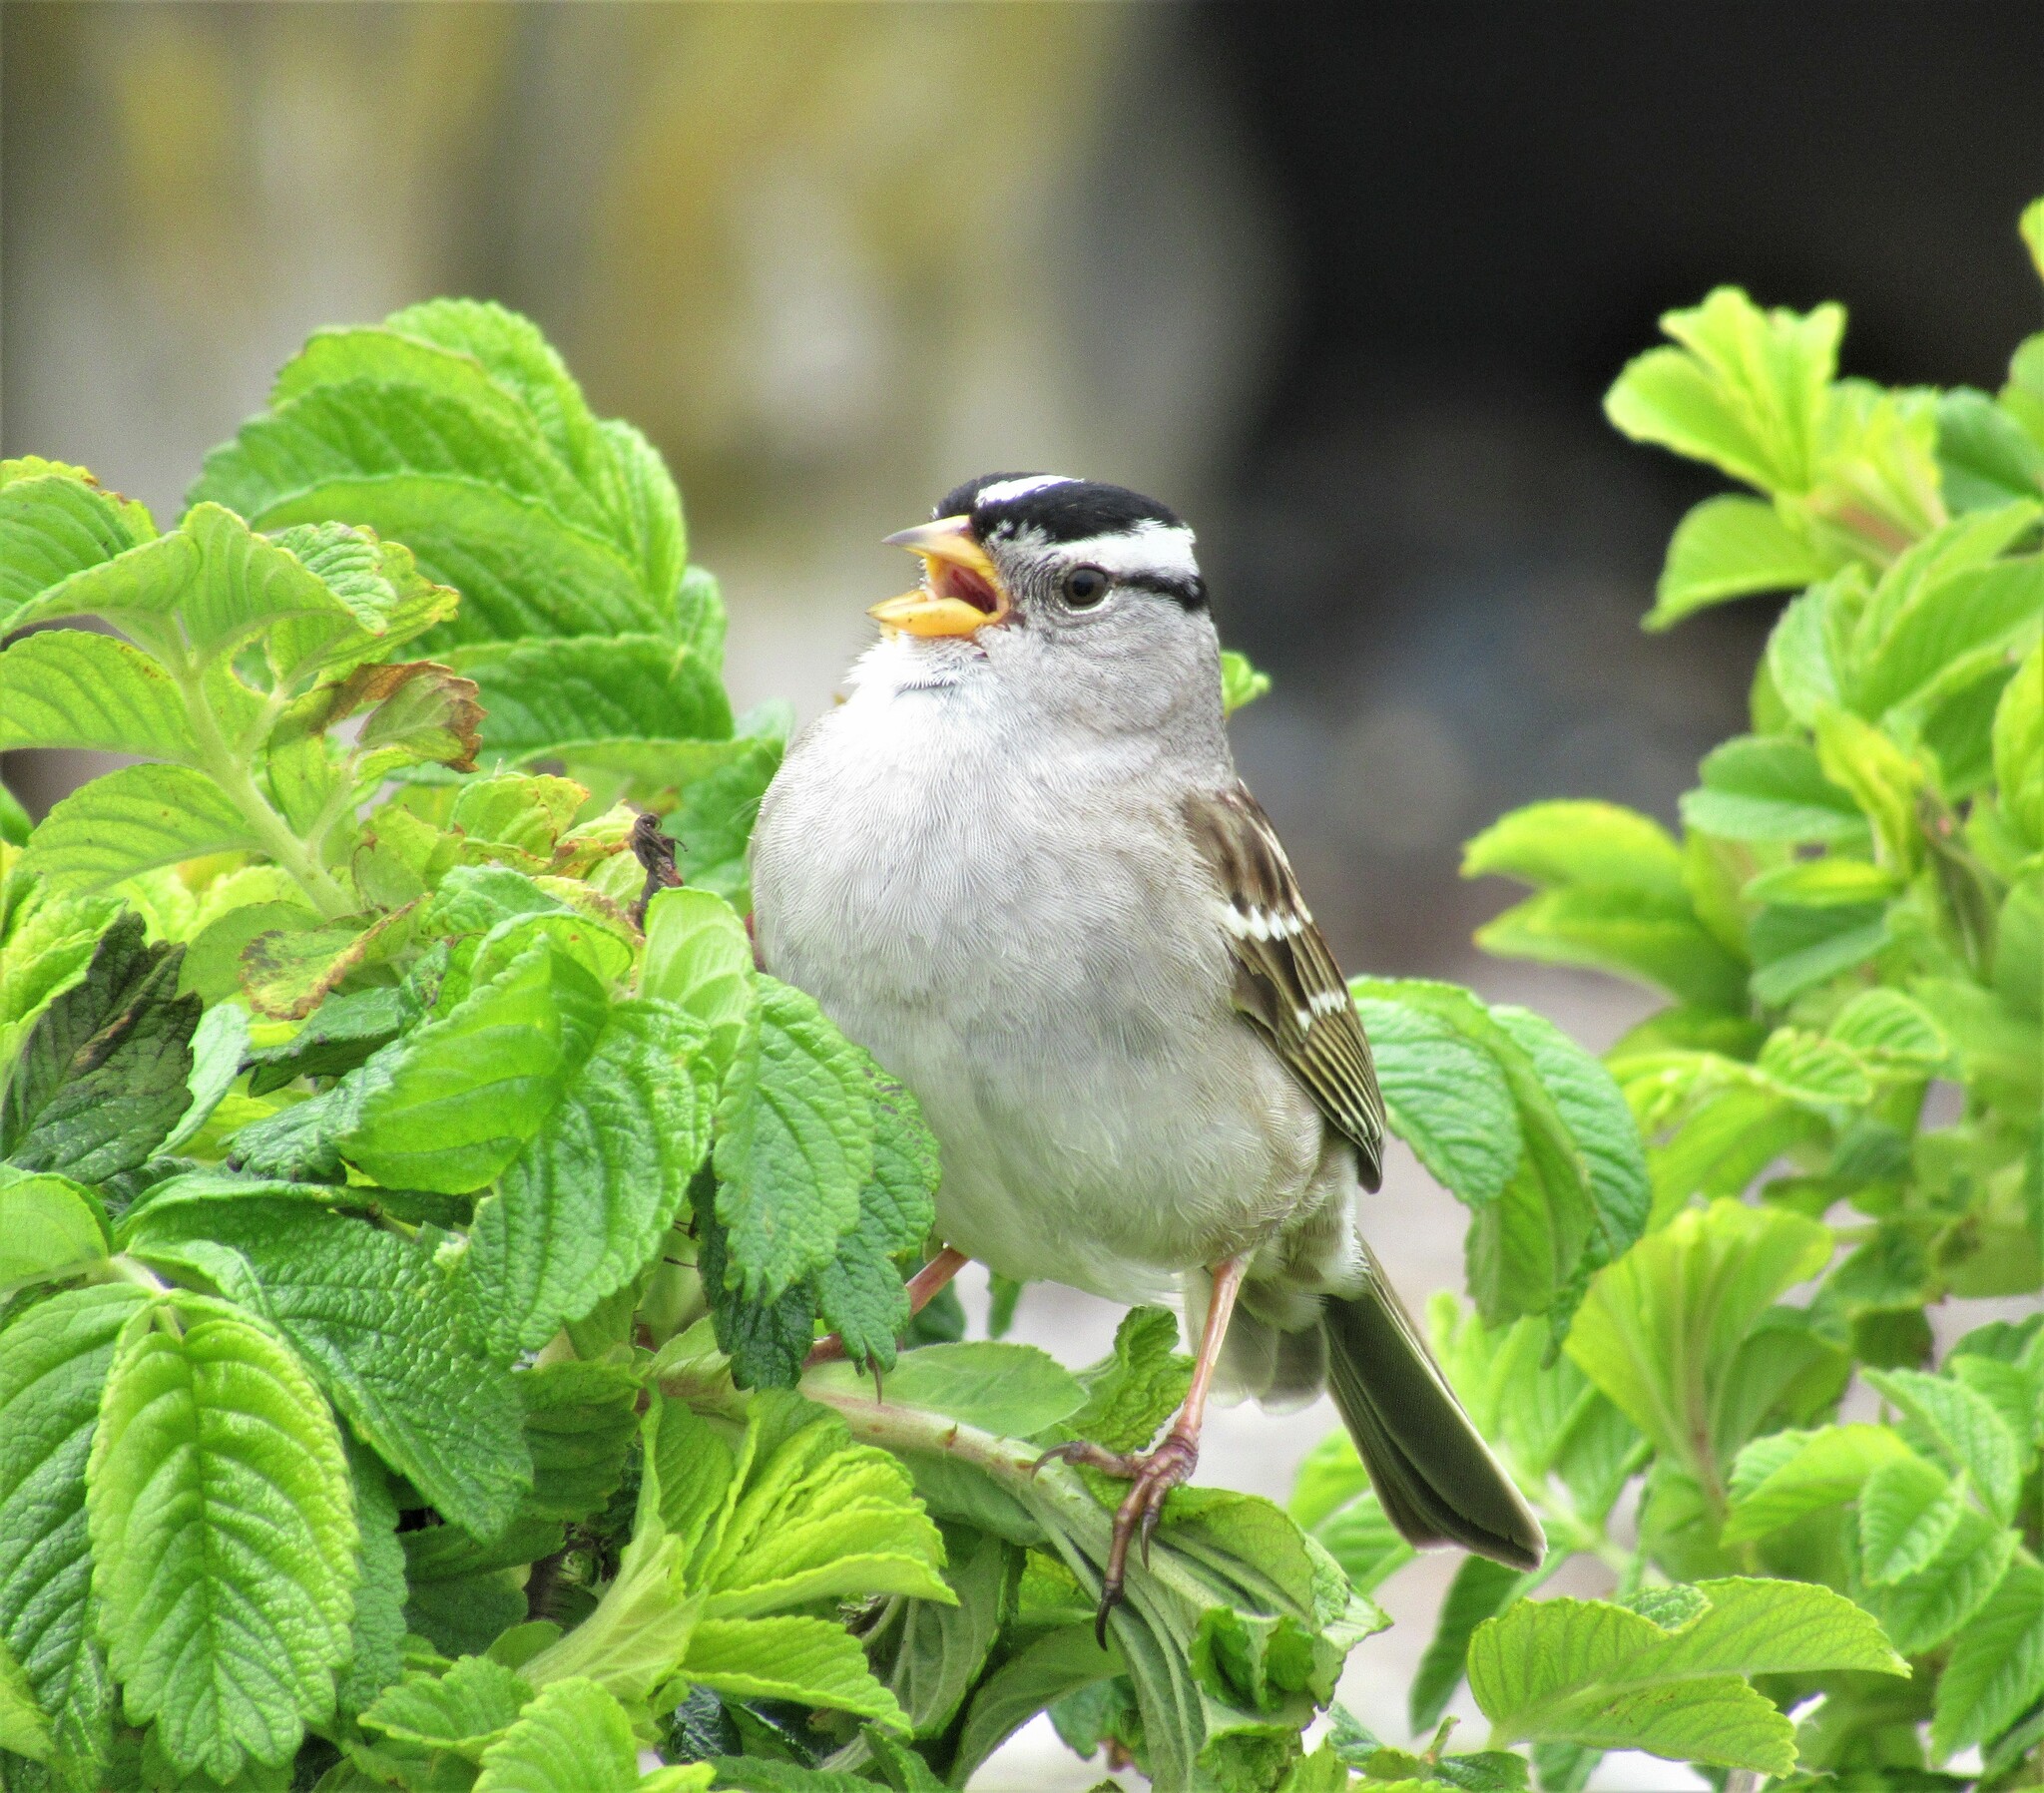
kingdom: Animalia
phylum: Chordata
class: Aves
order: Passeriformes
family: Passerellidae
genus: Zonotrichia
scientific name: Zonotrichia leucophrys
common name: White-crowned sparrow
